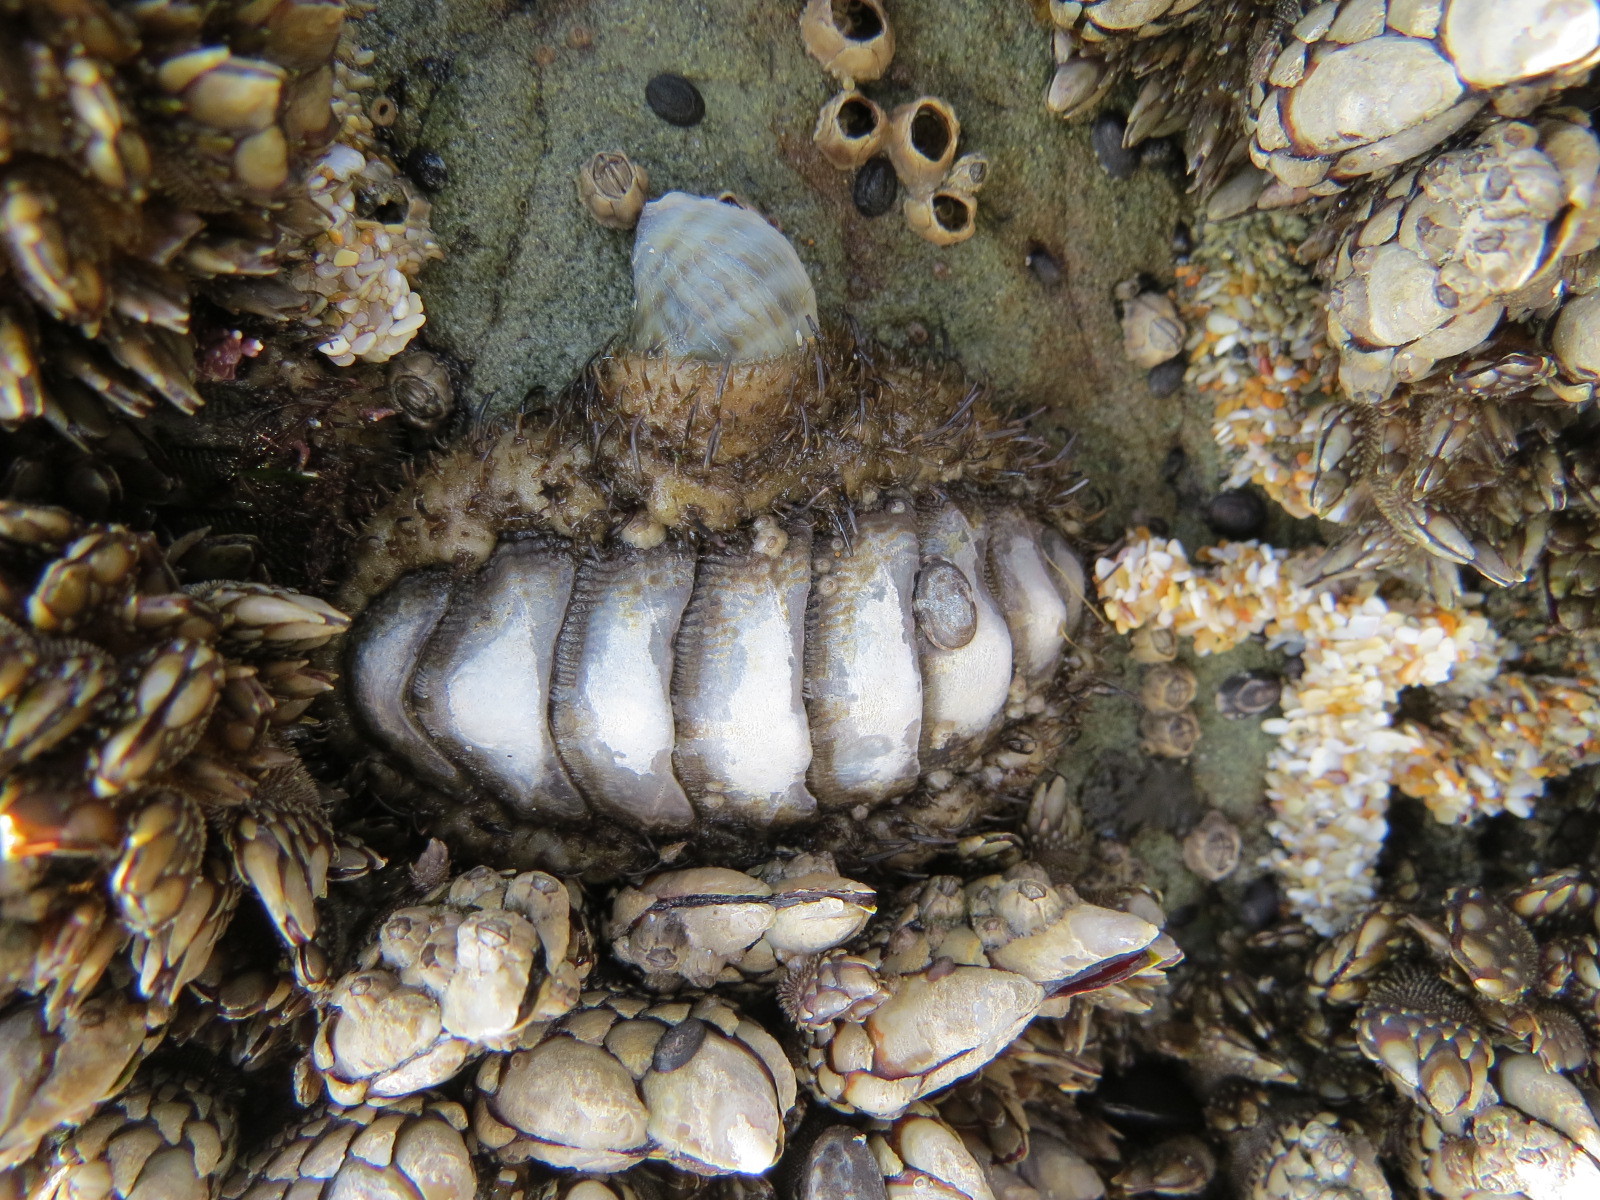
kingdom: Animalia
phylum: Mollusca
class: Polyplacophora
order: Chitonida
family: Mopaliidae
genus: Mopalia
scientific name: Mopalia muscosa
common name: Mossy chiton
